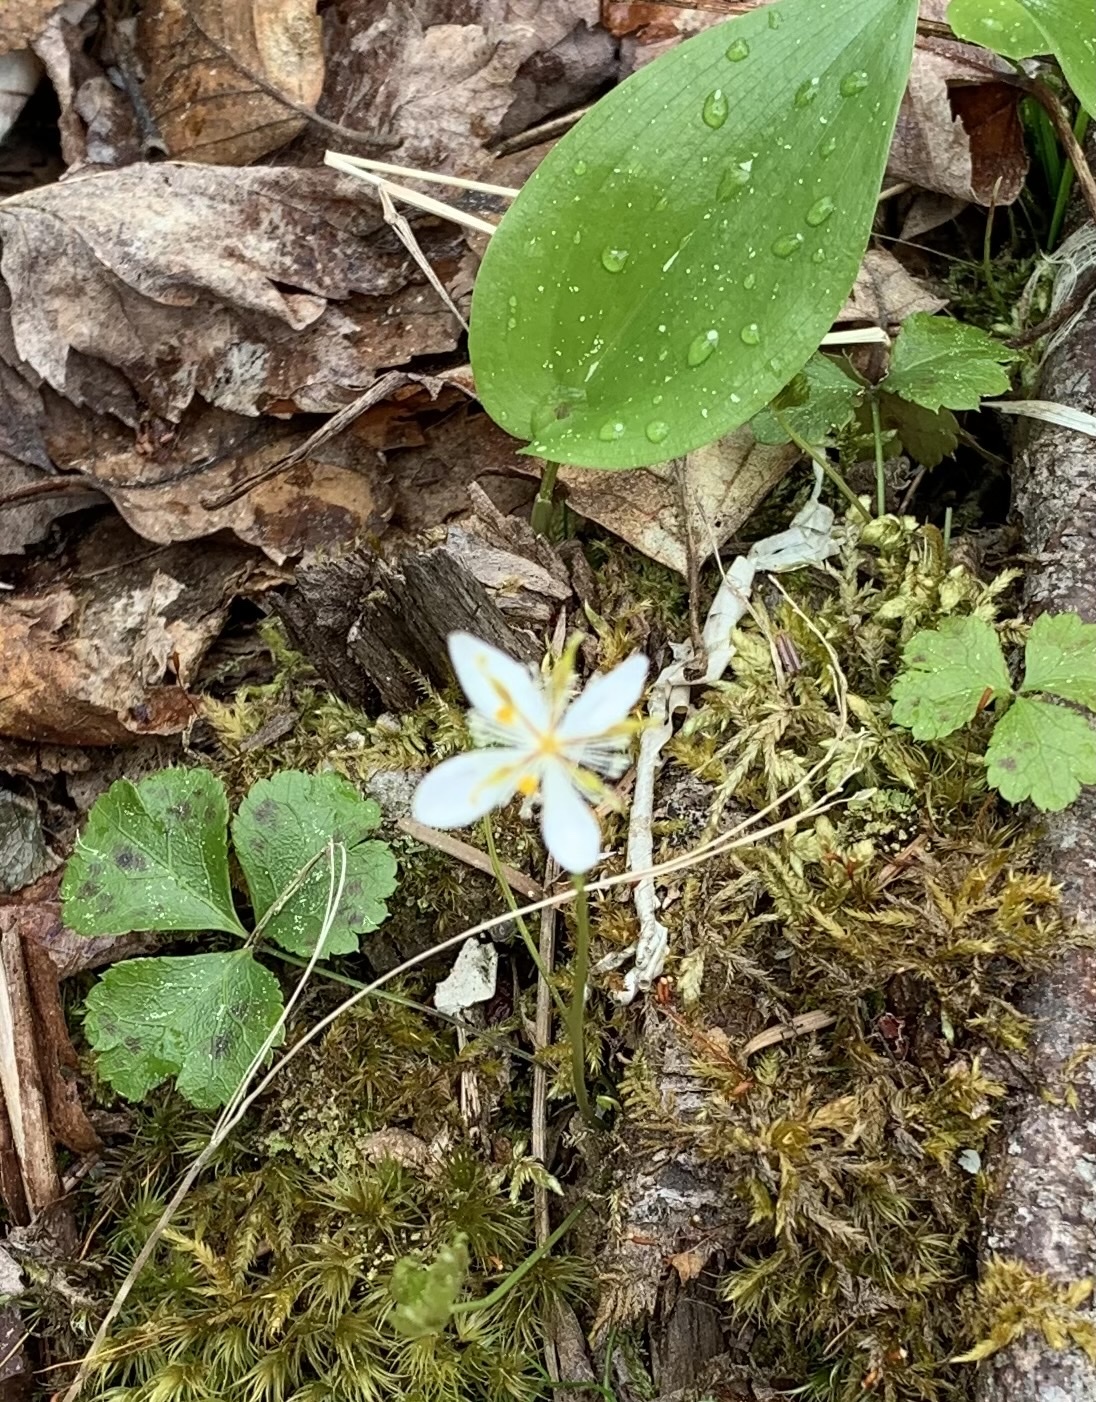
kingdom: Plantae
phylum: Tracheophyta
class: Magnoliopsida
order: Ranunculales
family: Ranunculaceae
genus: Coptis
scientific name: Coptis trifolia
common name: Canker-root
